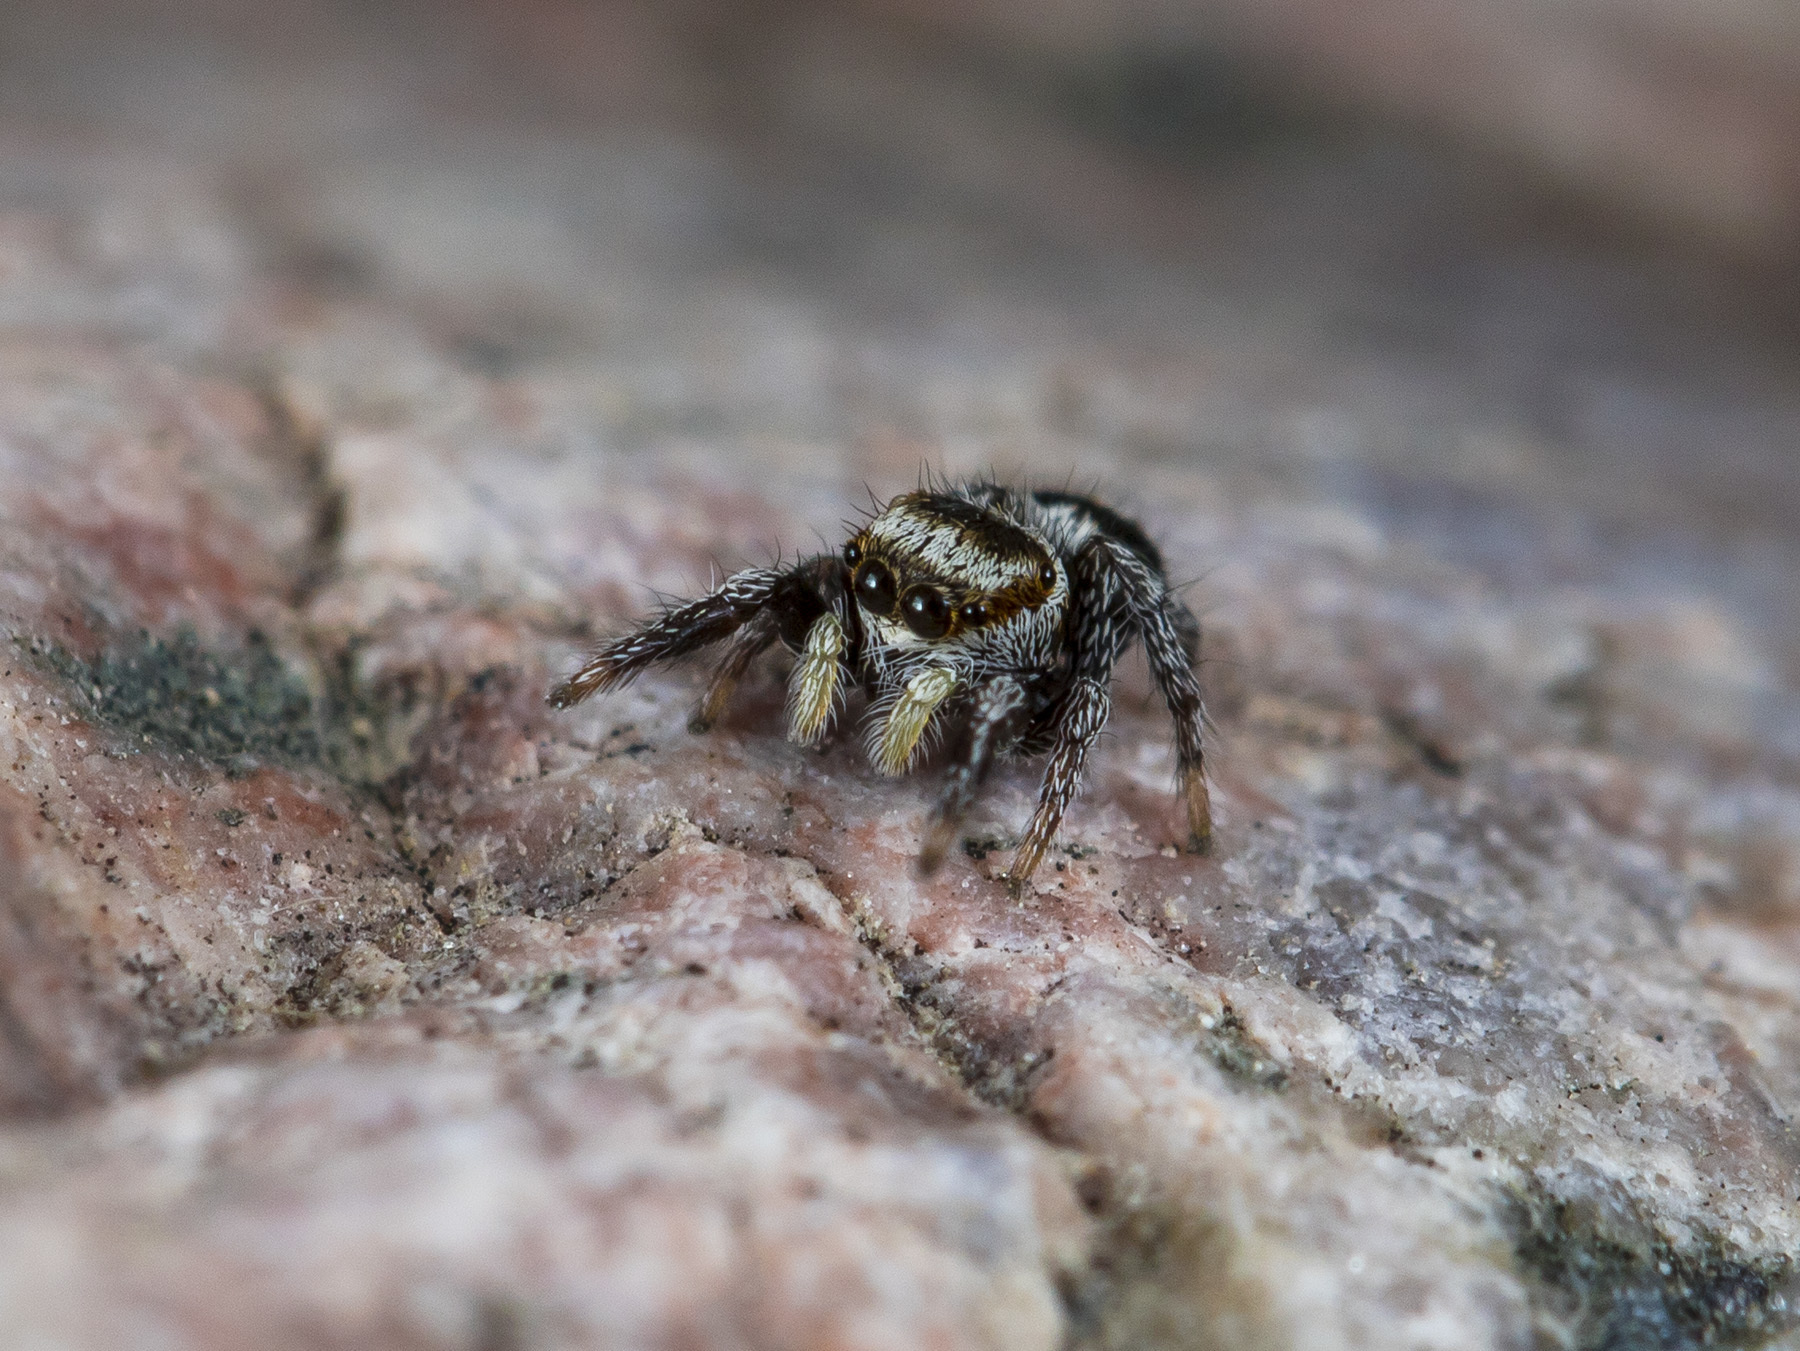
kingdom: Animalia
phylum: Arthropoda
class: Arachnida
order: Araneae
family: Salticidae
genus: Pellenes
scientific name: Pellenes geniculatus
